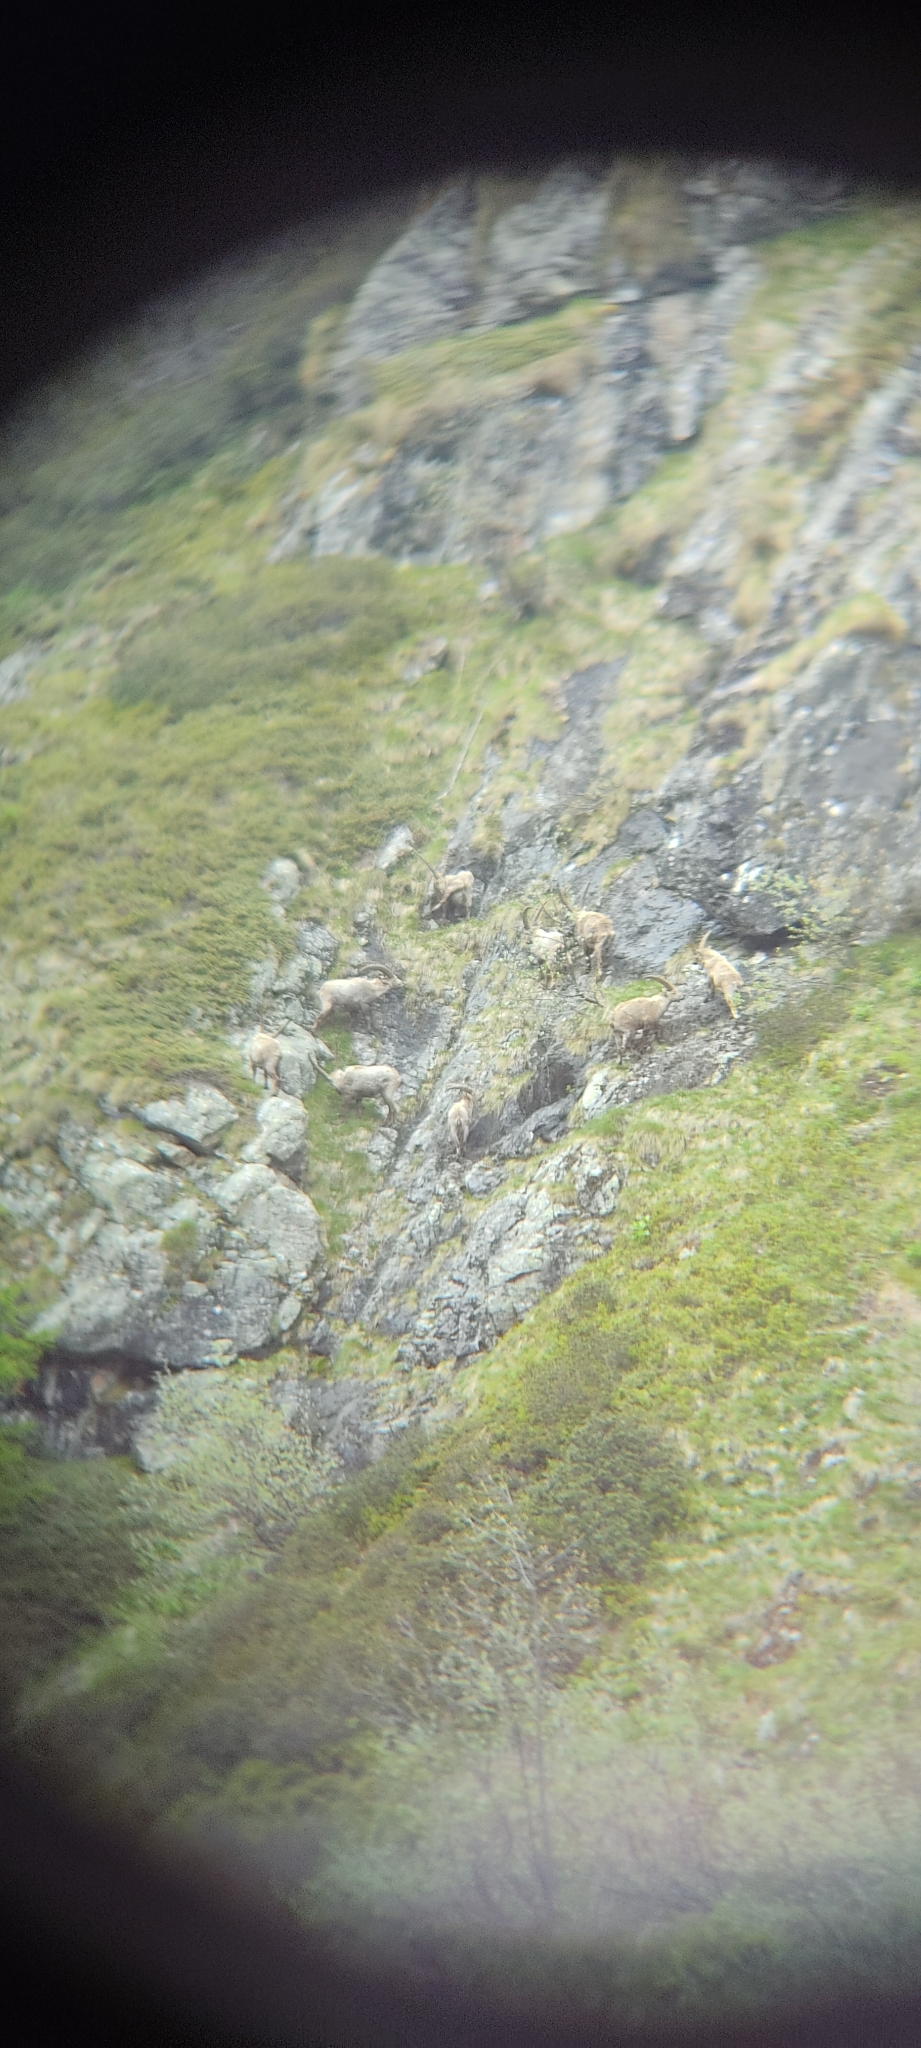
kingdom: Animalia
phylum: Chordata
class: Mammalia
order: Artiodactyla
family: Bovidae
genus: Capra
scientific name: Capra ibex
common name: Alpine ibex
